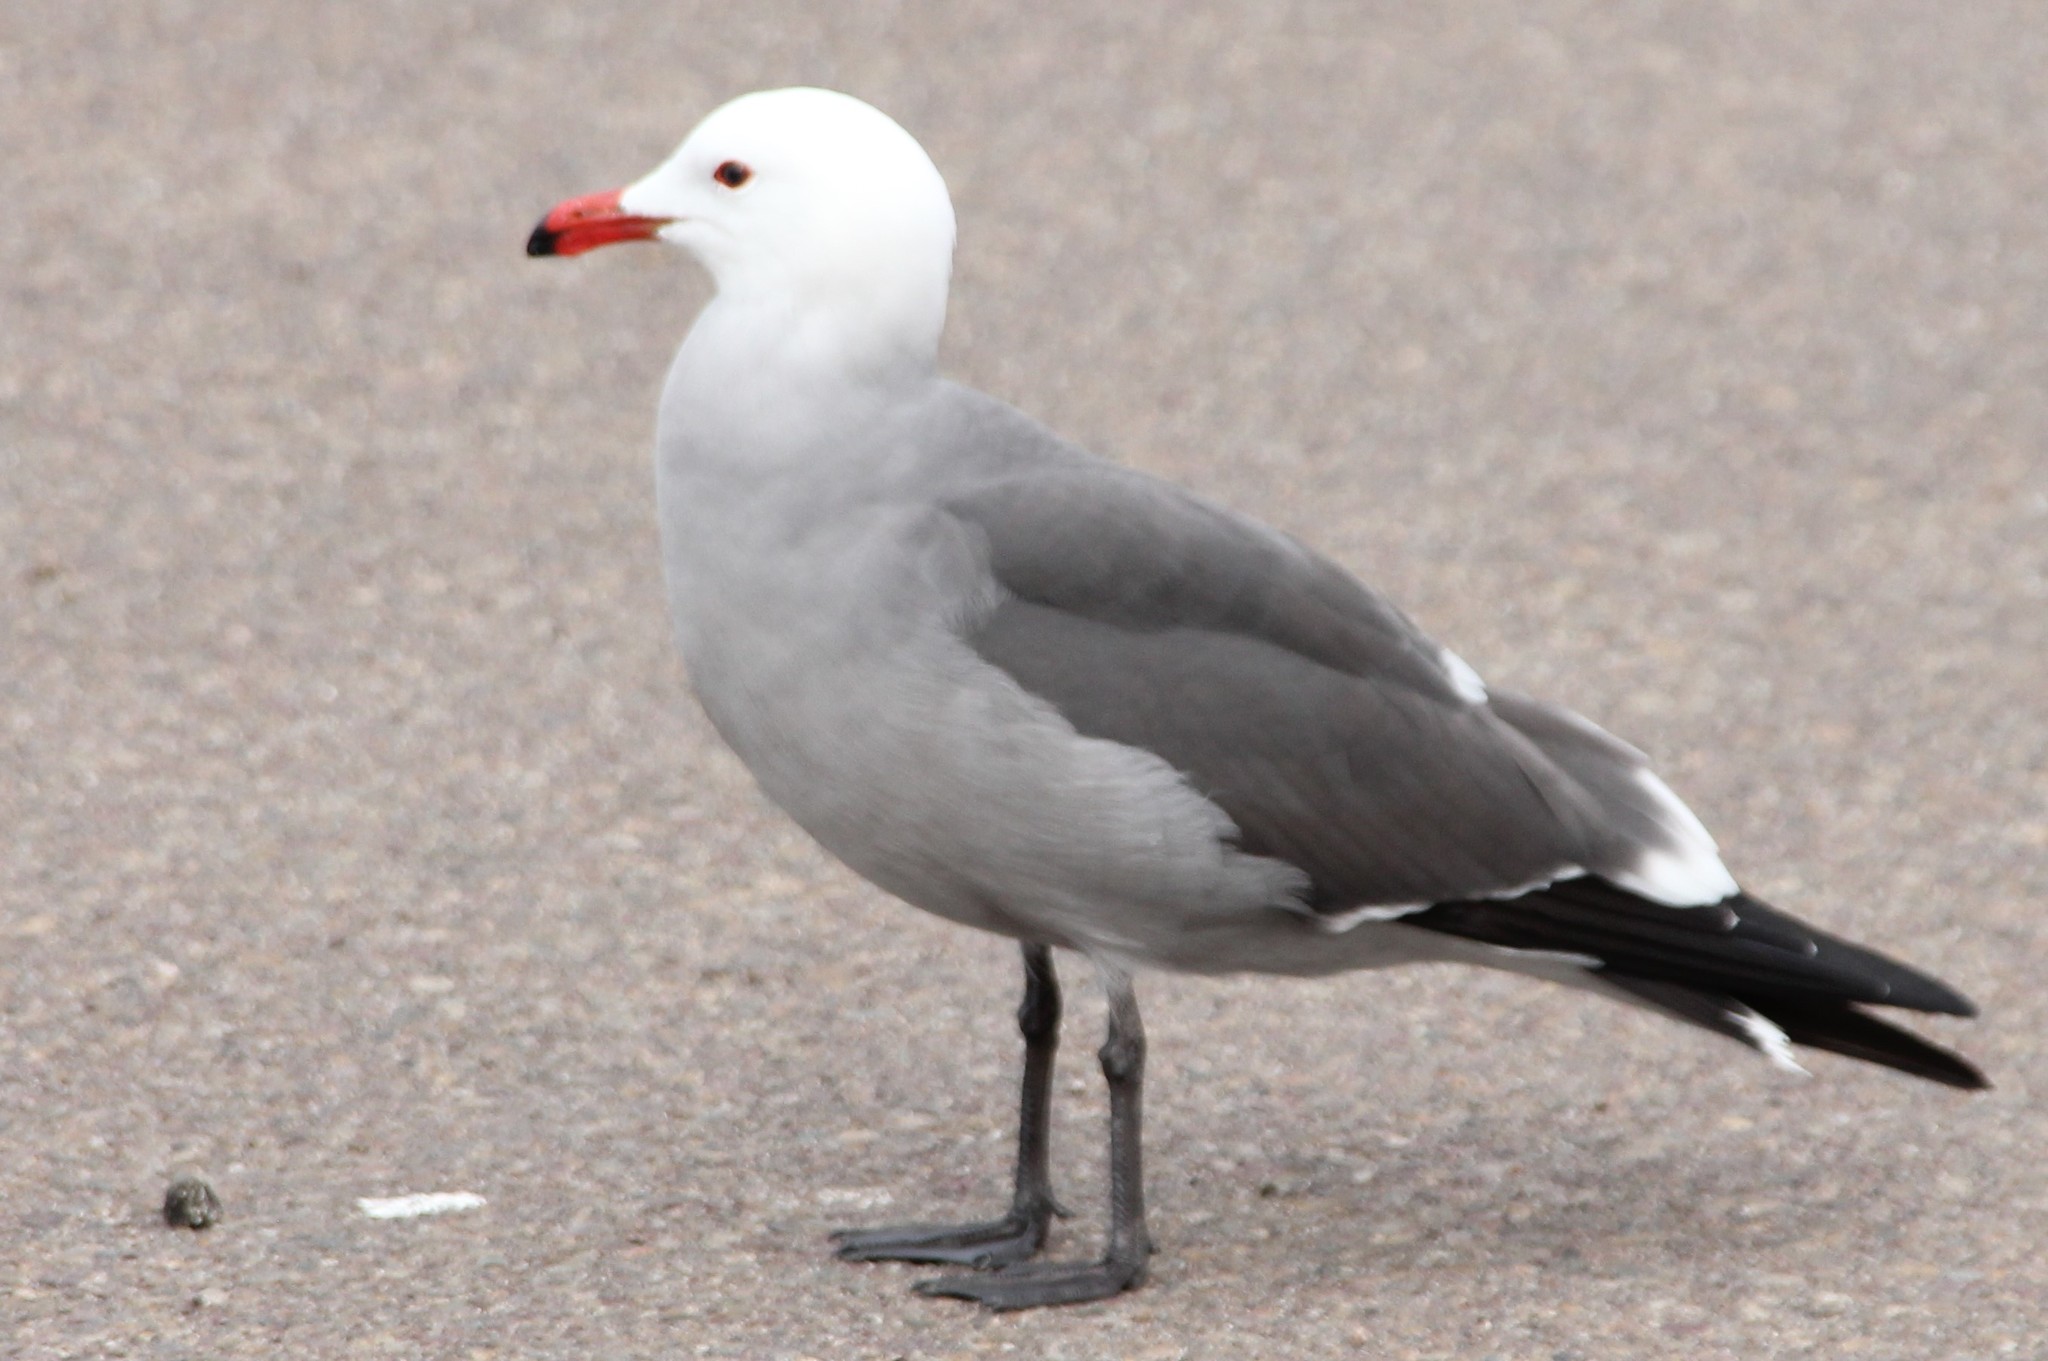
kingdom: Animalia
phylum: Chordata
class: Aves
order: Charadriiformes
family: Laridae
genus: Larus
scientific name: Larus heermanni
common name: Heermann's gull
